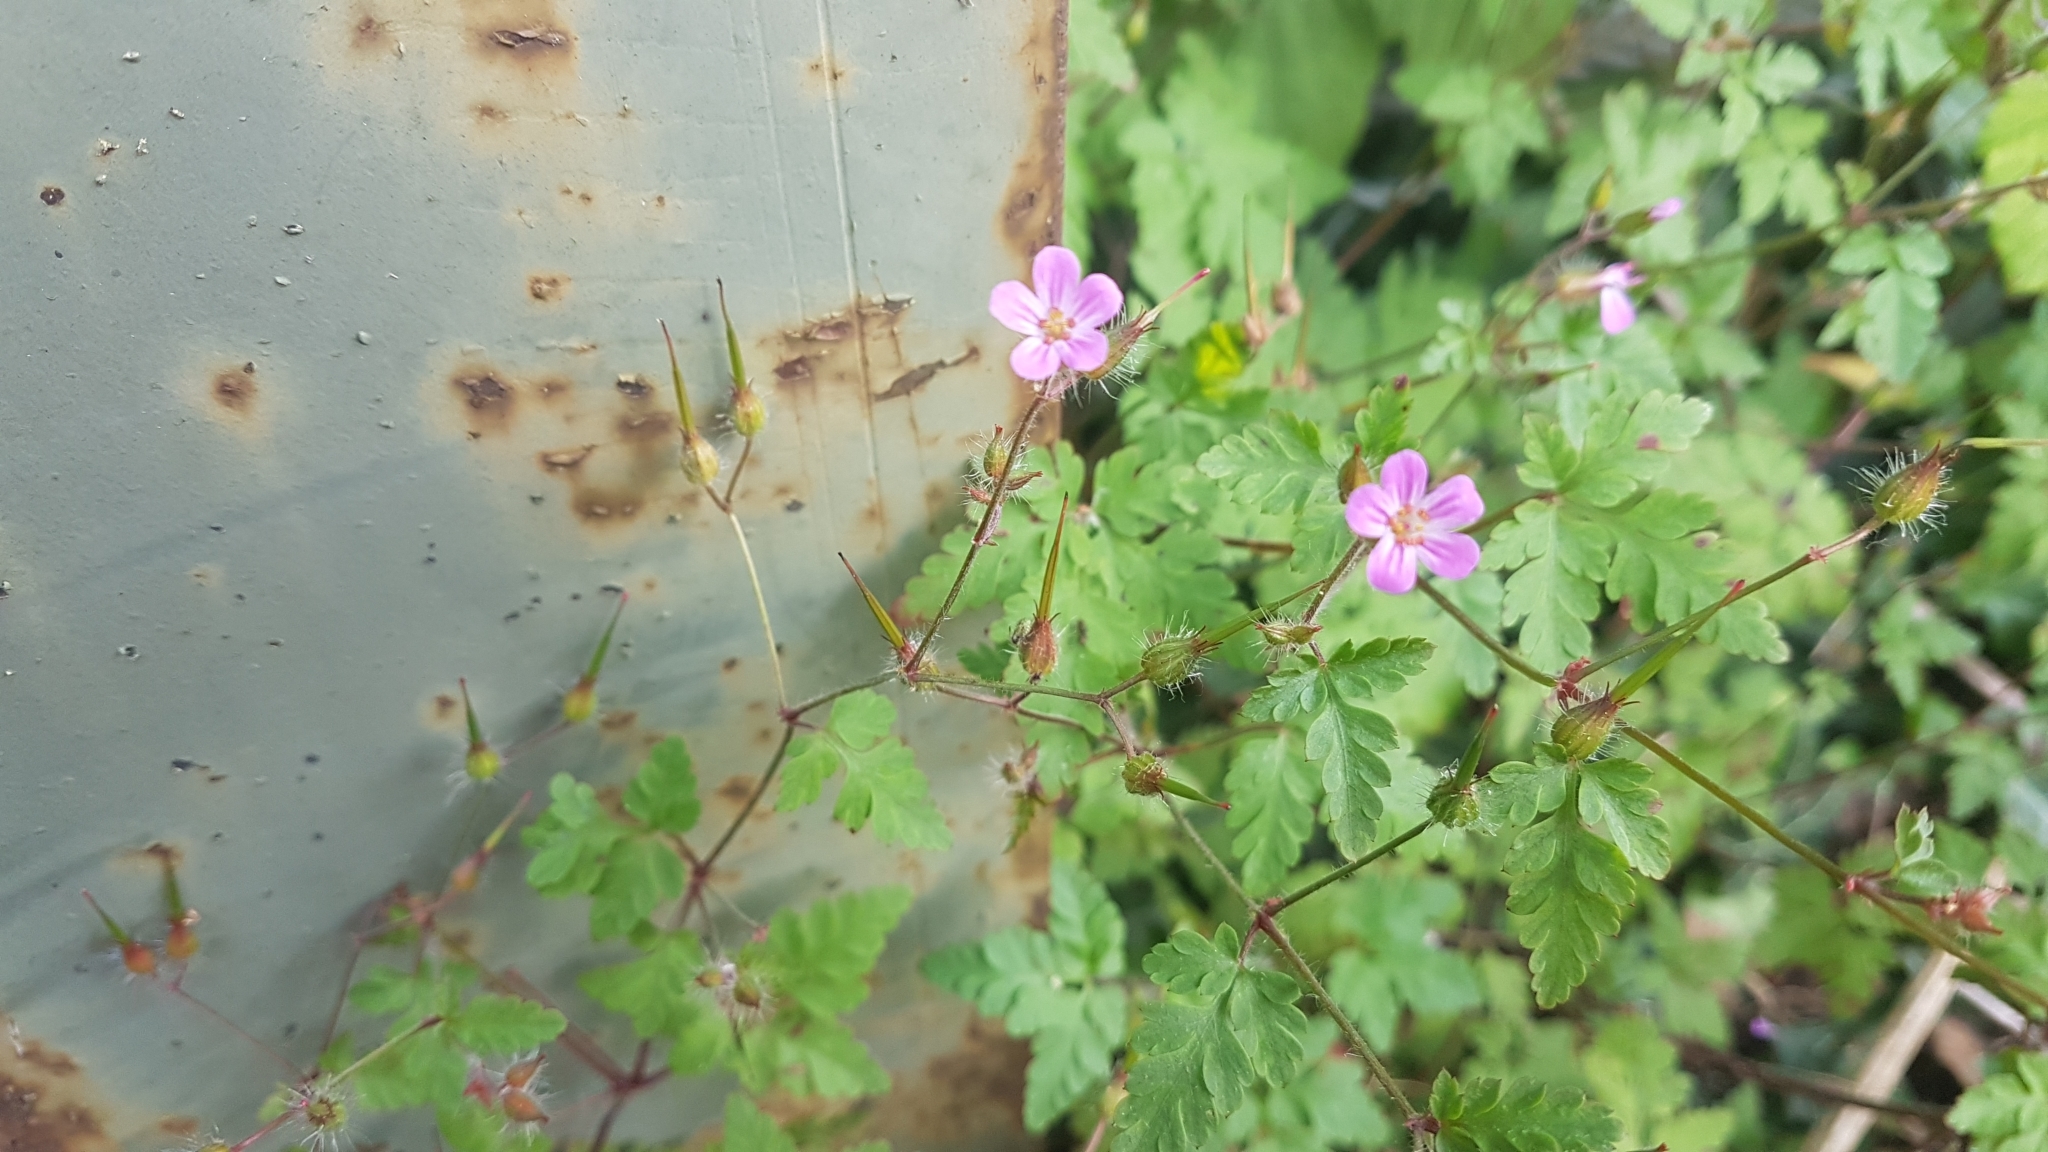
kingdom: Plantae
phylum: Tracheophyta
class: Magnoliopsida
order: Geraniales
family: Geraniaceae
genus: Geranium
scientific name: Geranium robertianum
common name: Herb-robert
